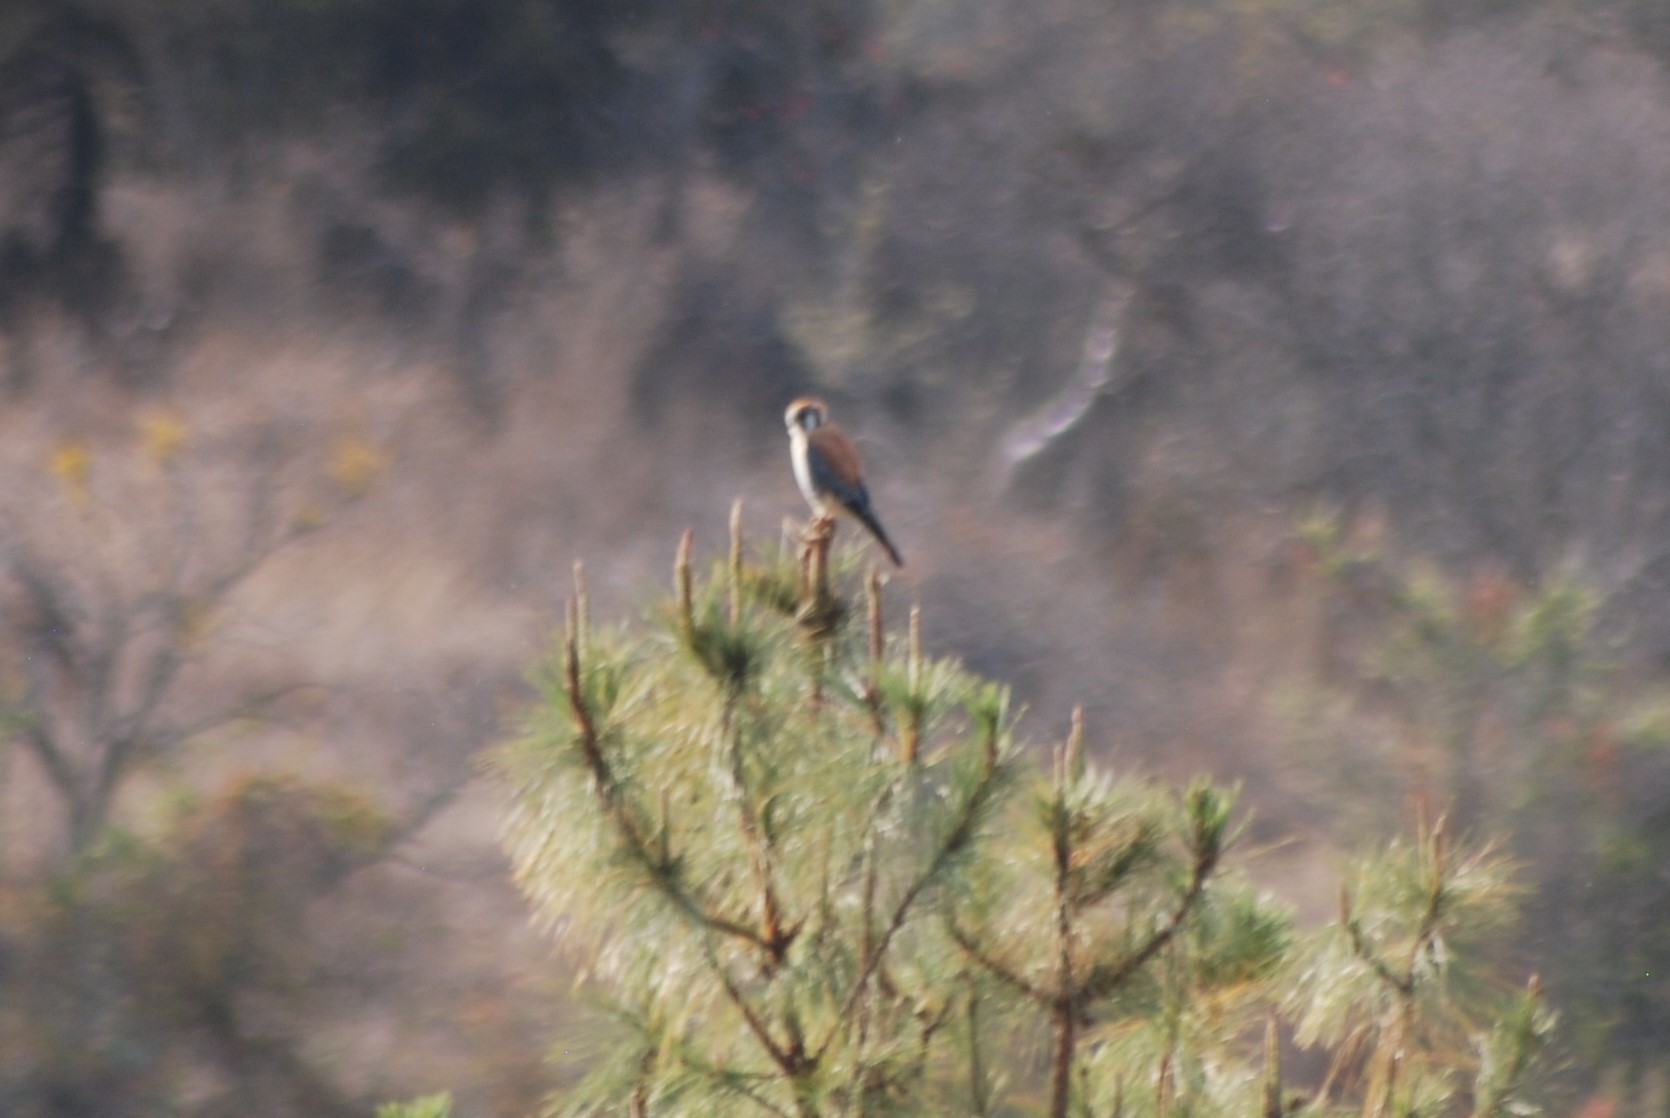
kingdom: Animalia
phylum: Chordata
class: Aves
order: Falconiformes
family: Falconidae
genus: Falco
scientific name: Falco sparverius
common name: American kestrel
